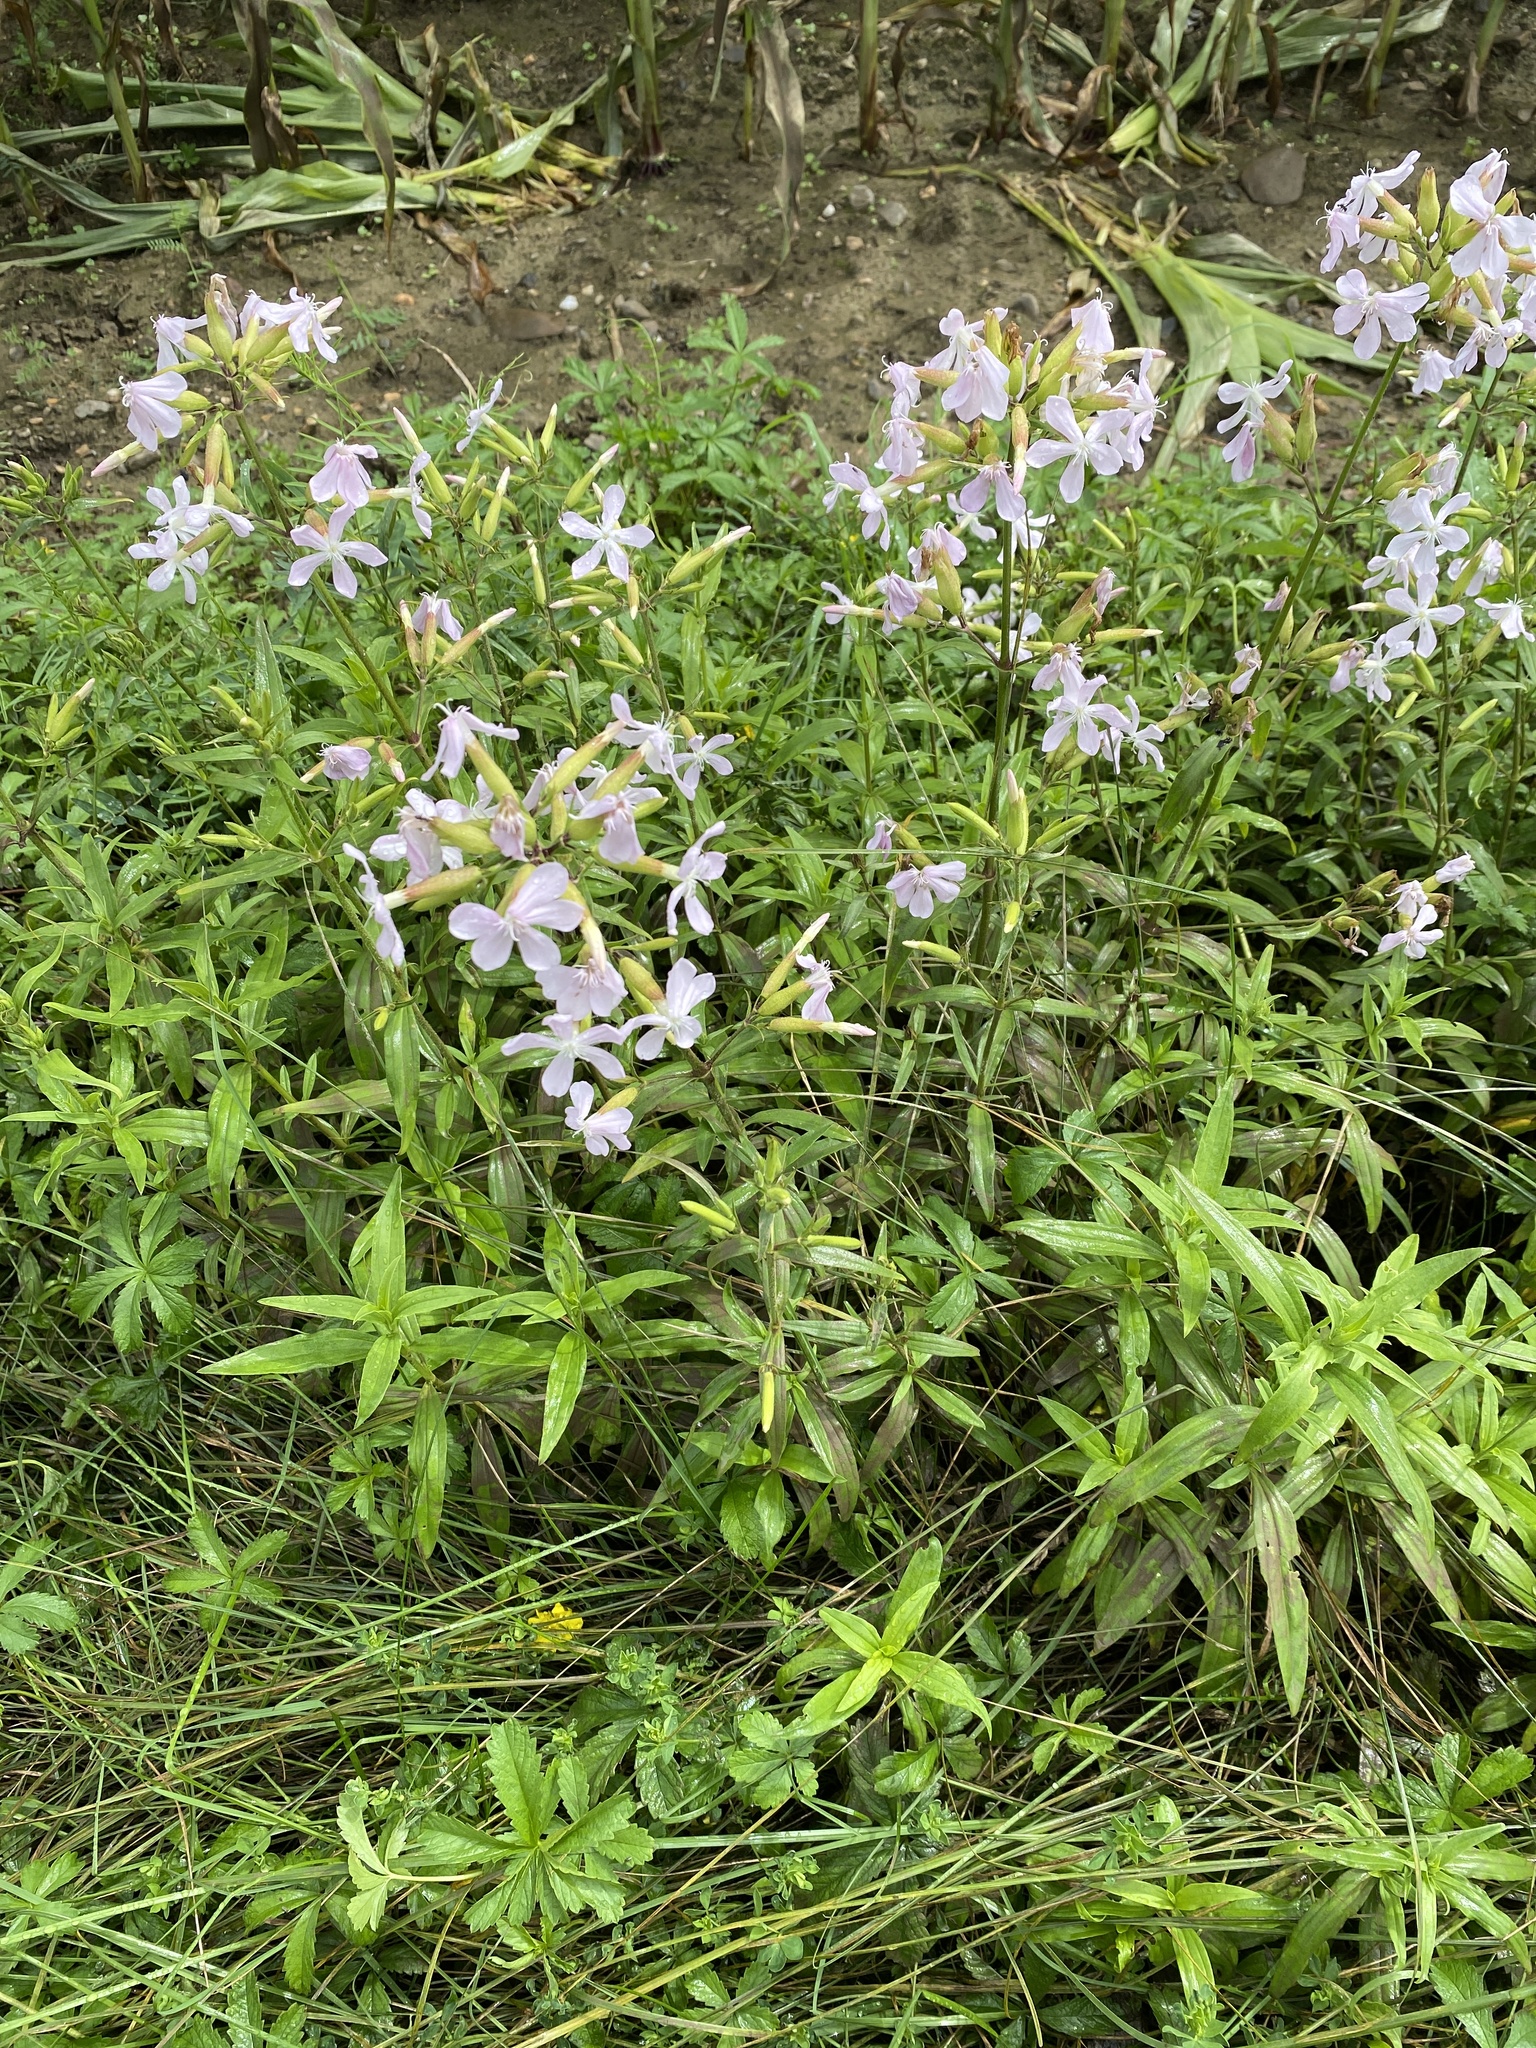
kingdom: Plantae
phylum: Tracheophyta
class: Magnoliopsida
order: Caryophyllales
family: Caryophyllaceae
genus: Saponaria
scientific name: Saponaria officinalis
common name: Soapwort
